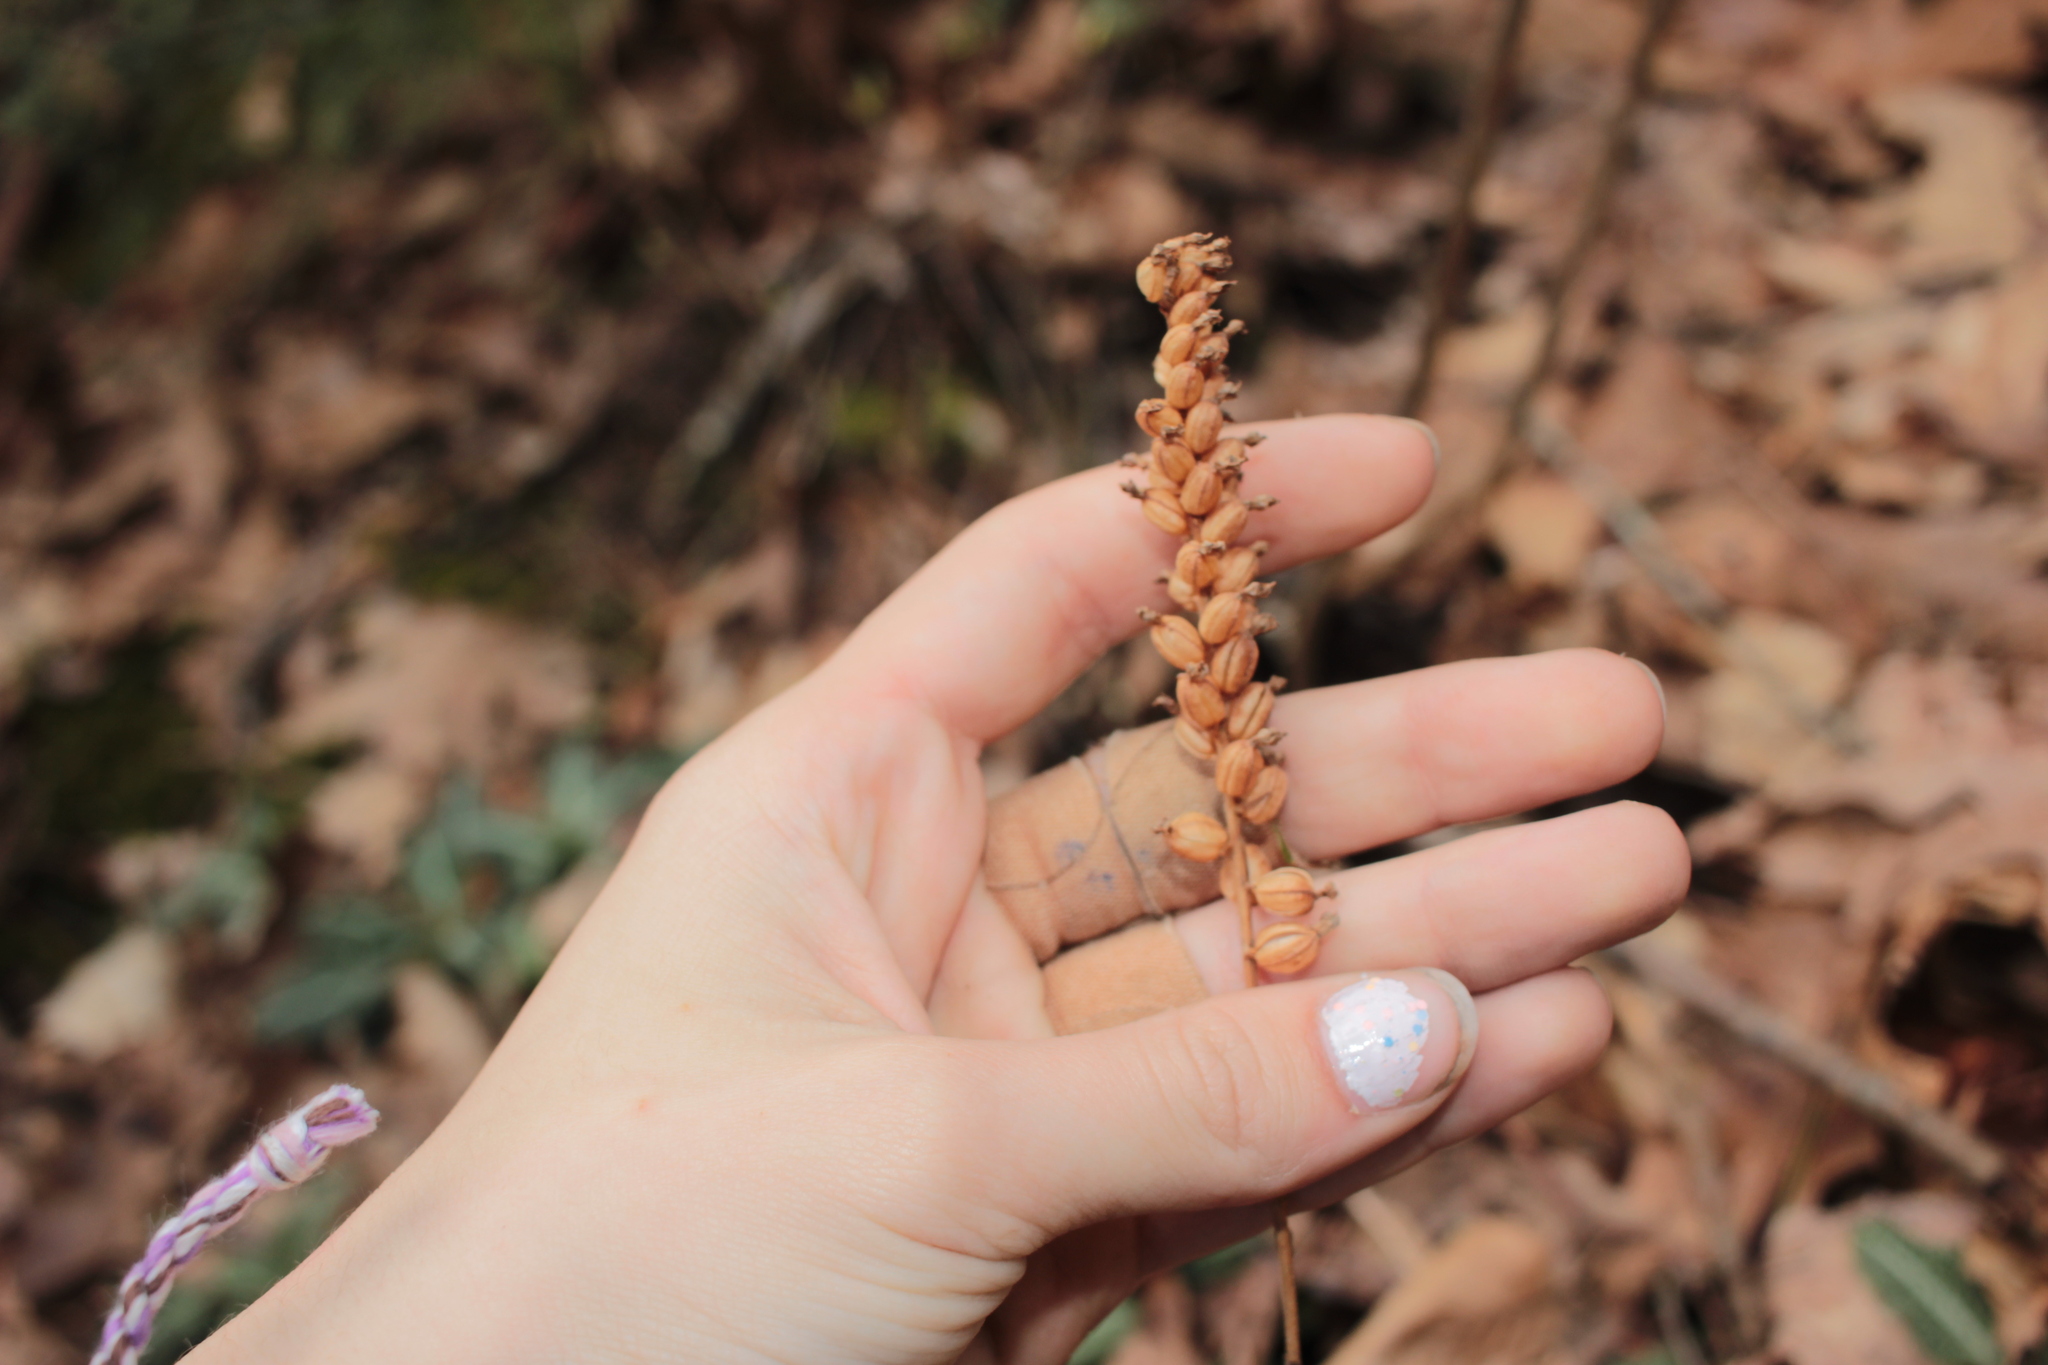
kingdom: Plantae
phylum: Tracheophyta
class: Liliopsida
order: Asparagales
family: Orchidaceae
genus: Goodyera
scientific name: Goodyera pubescens
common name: Downy rattlesnake-plantain
